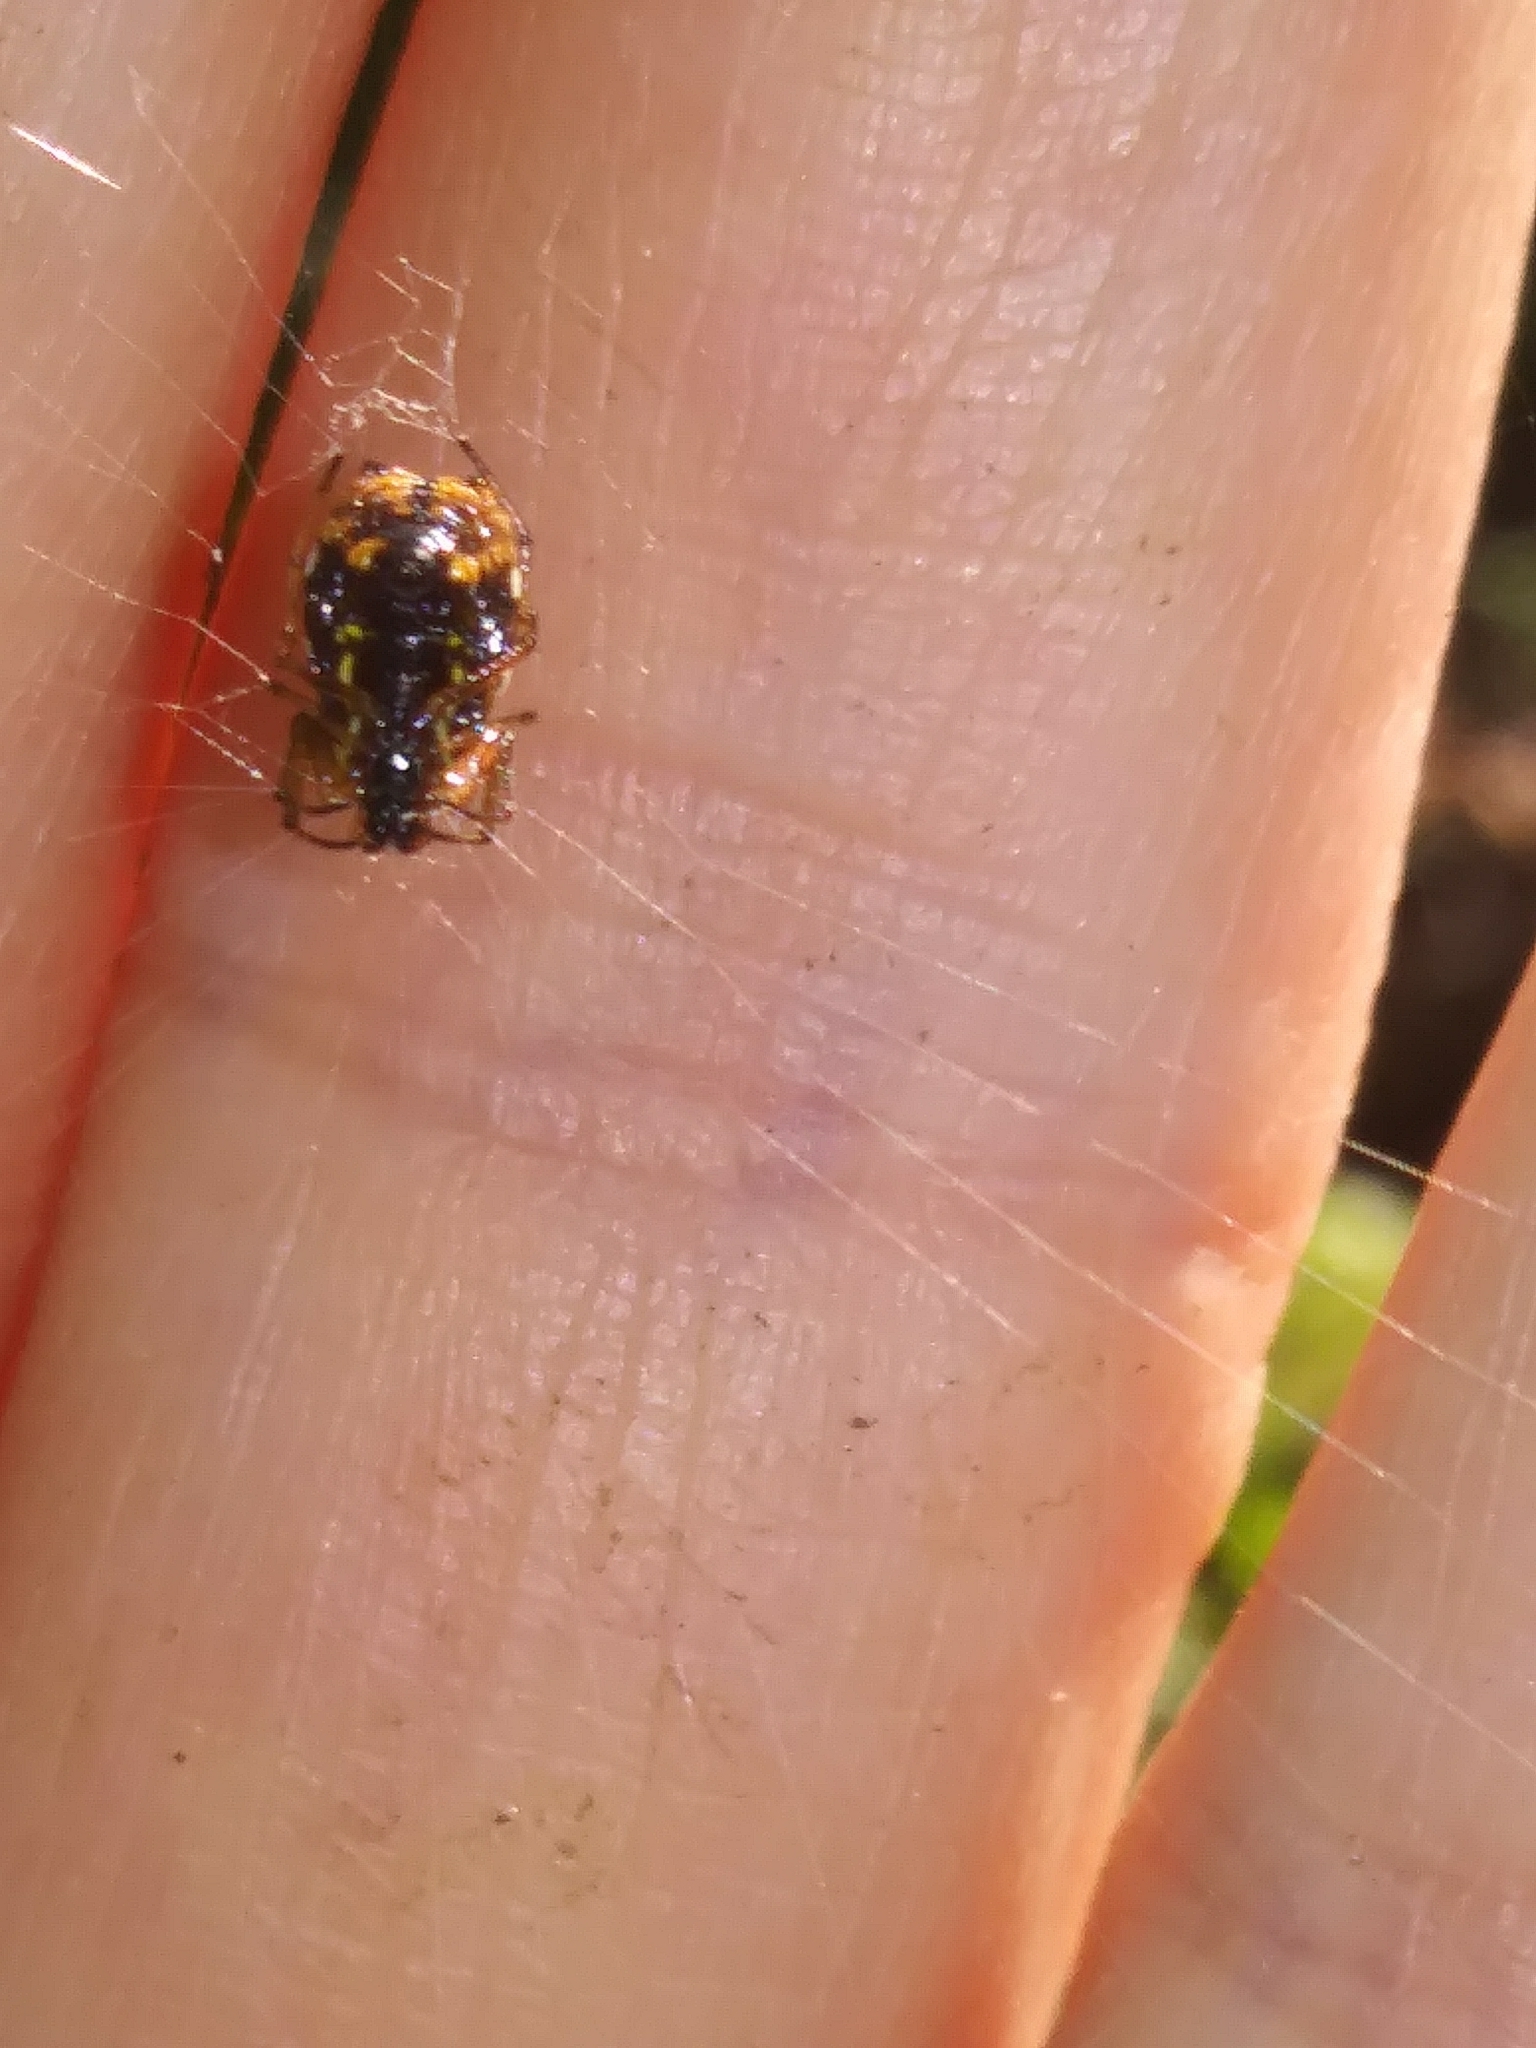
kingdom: Animalia
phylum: Arthropoda
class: Arachnida
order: Araneae
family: Araneidae
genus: Micrathena
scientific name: Micrathena mitrata
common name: Orb weavers
